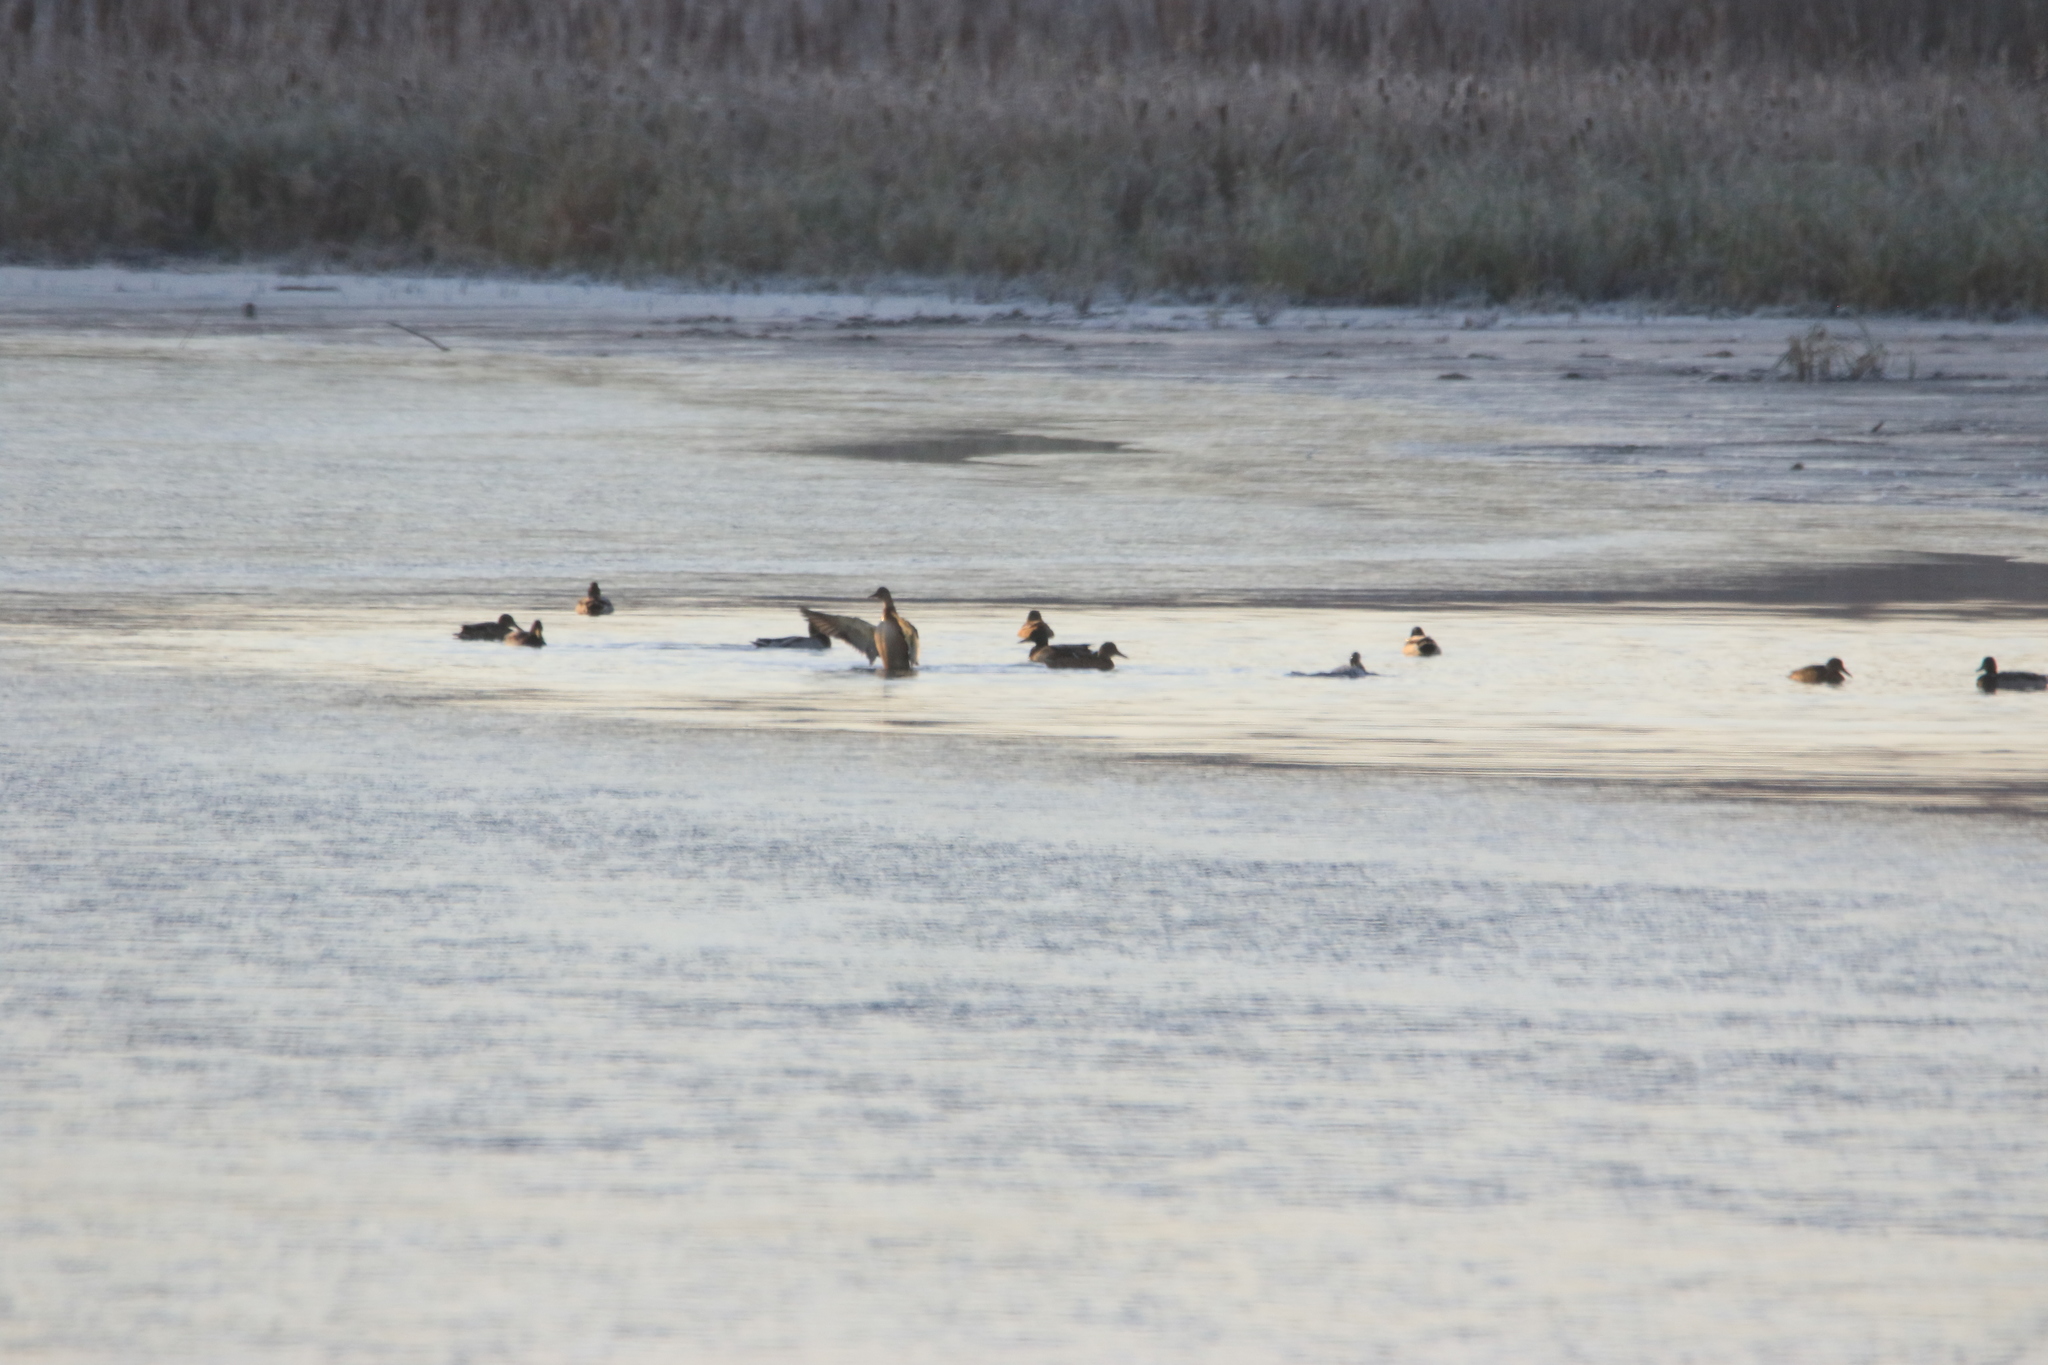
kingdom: Animalia
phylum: Chordata
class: Aves
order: Anseriformes
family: Anatidae
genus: Anas
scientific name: Anas platyrhynchos
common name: Mallard
